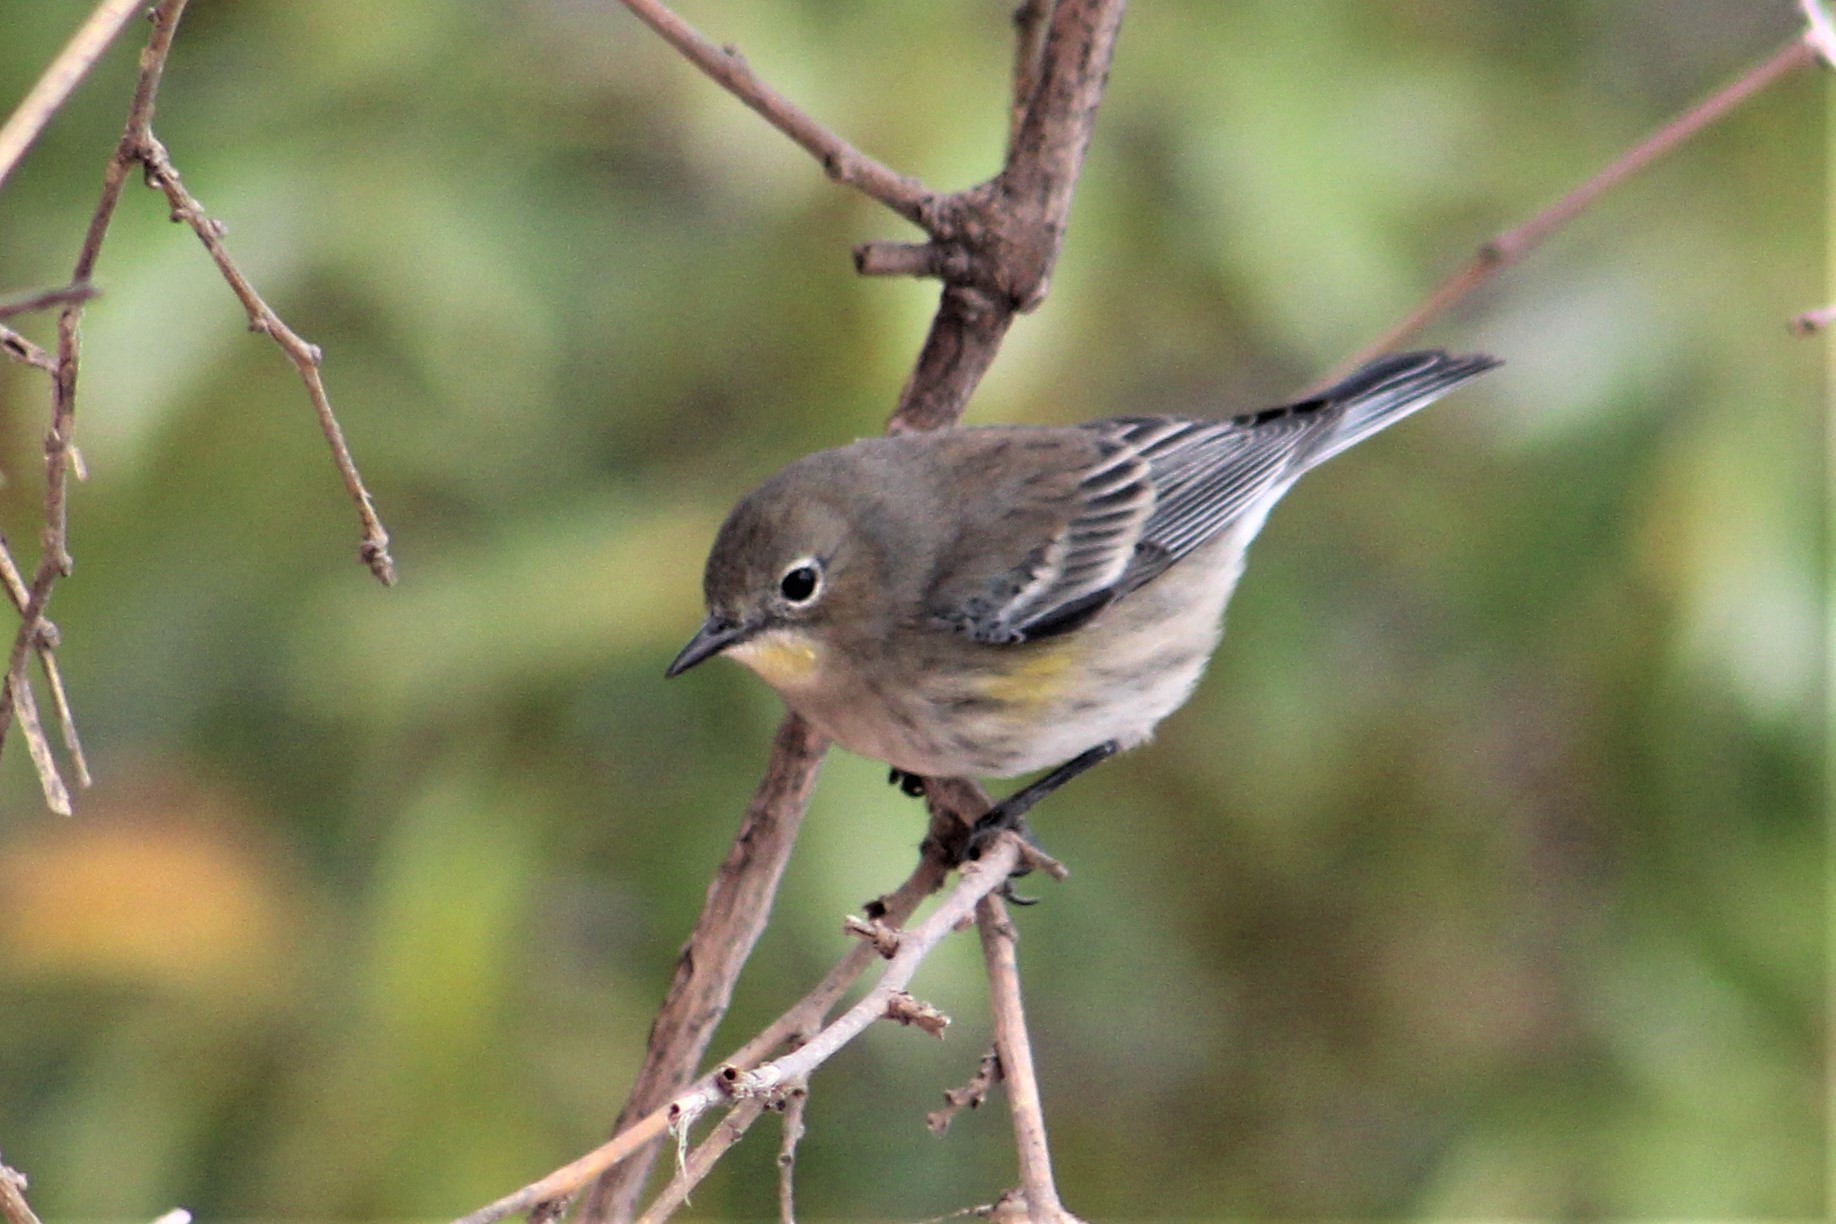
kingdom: Animalia
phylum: Chordata
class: Aves
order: Passeriformes
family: Parulidae
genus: Setophaga
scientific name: Setophaga coronata
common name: Myrtle warbler
